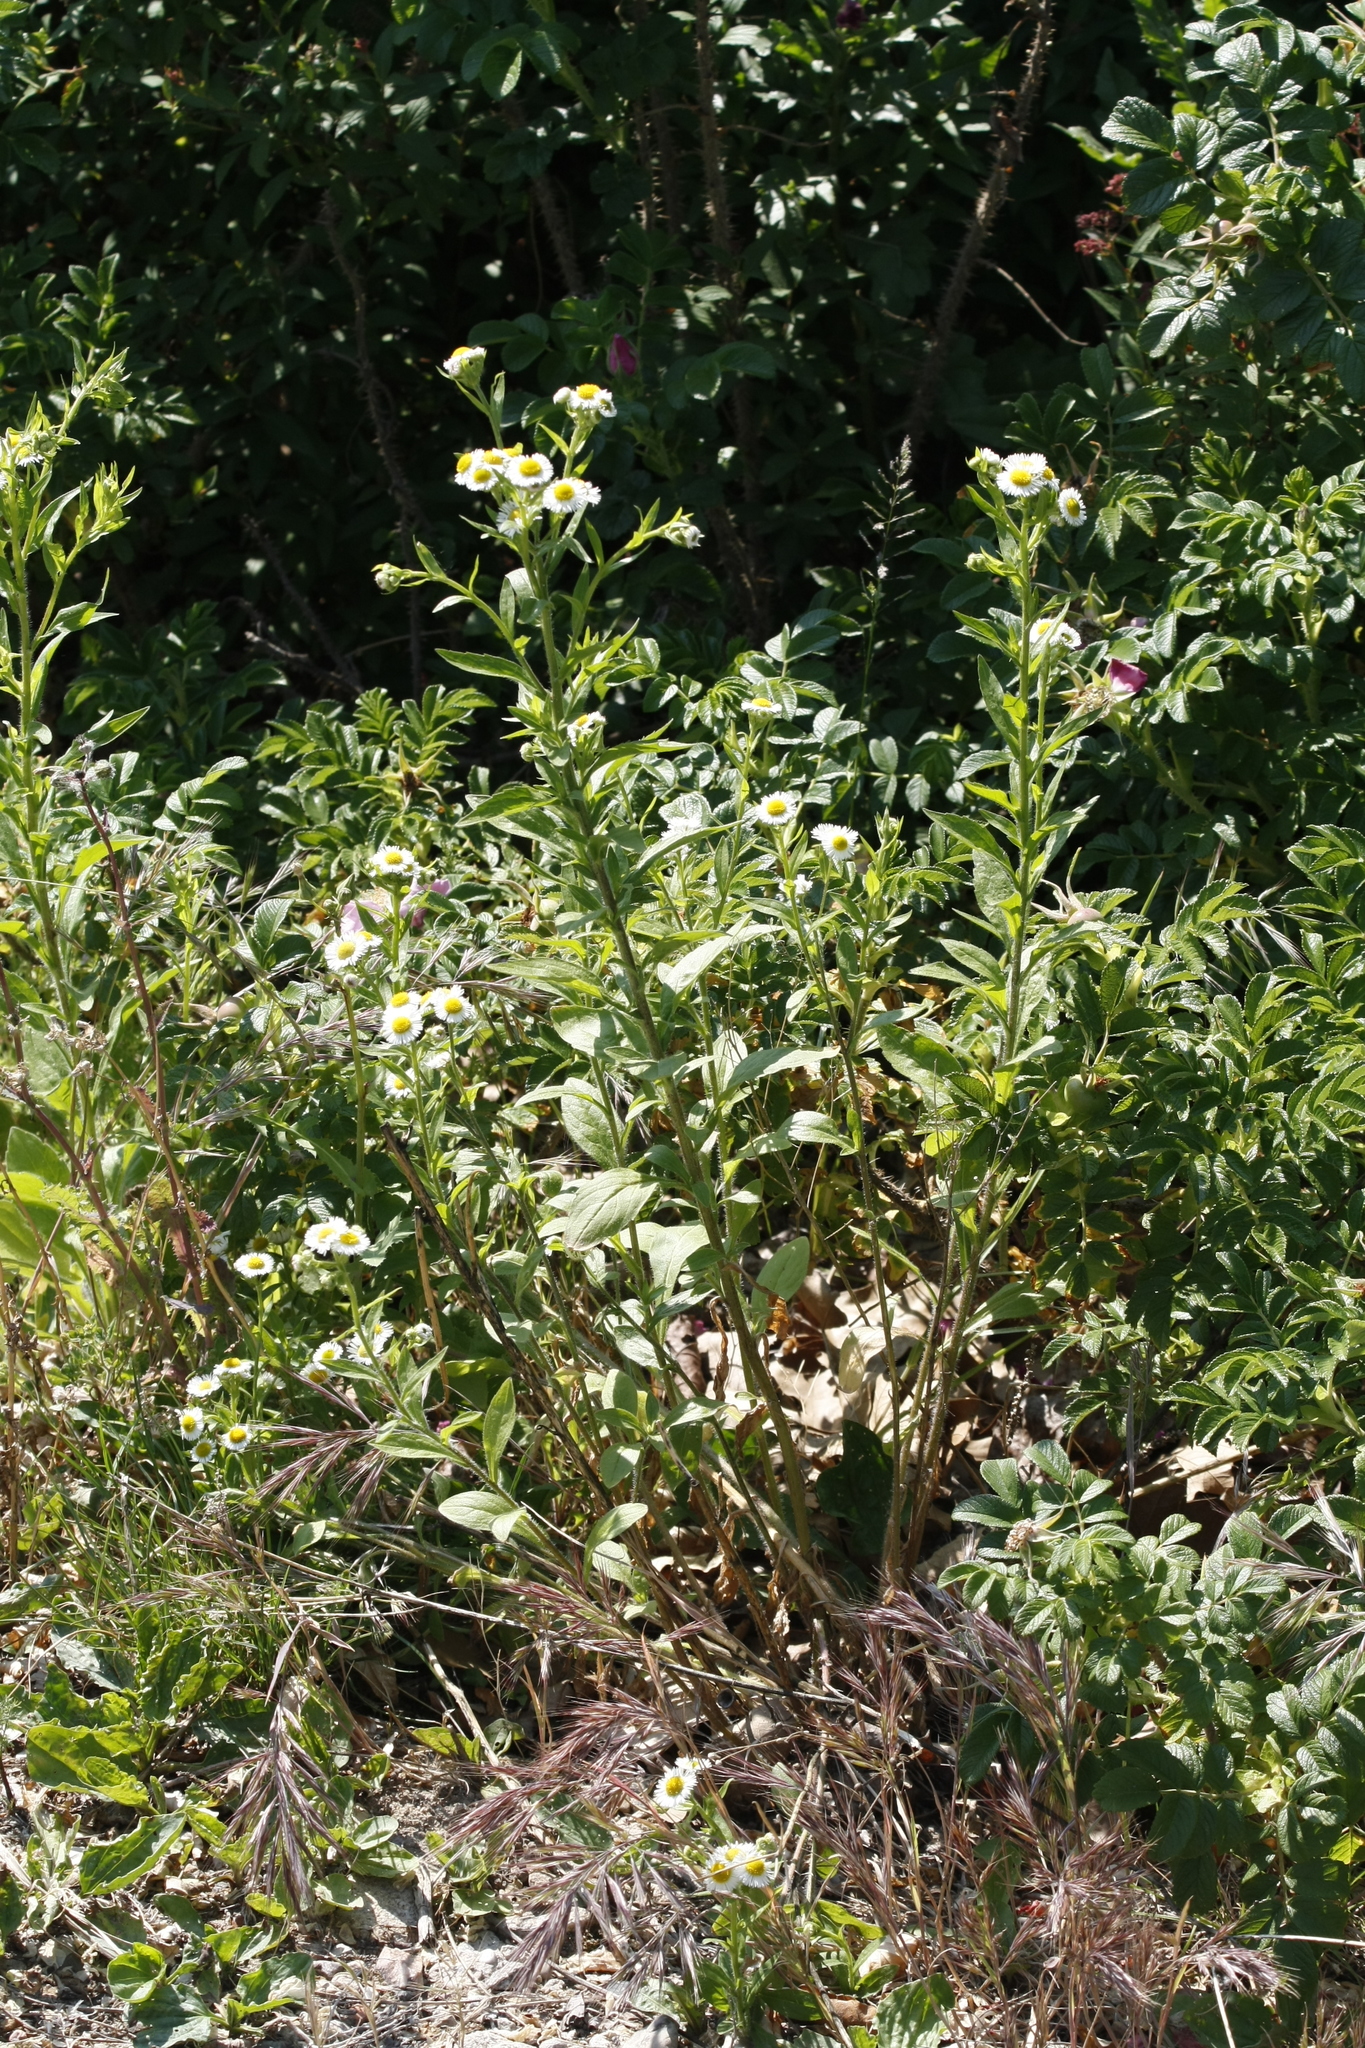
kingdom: Plantae
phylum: Tracheophyta
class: Magnoliopsida
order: Asterales
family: Asteraceae
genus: Erigeron
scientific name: Erigeron annuus
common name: Tall fleabane
